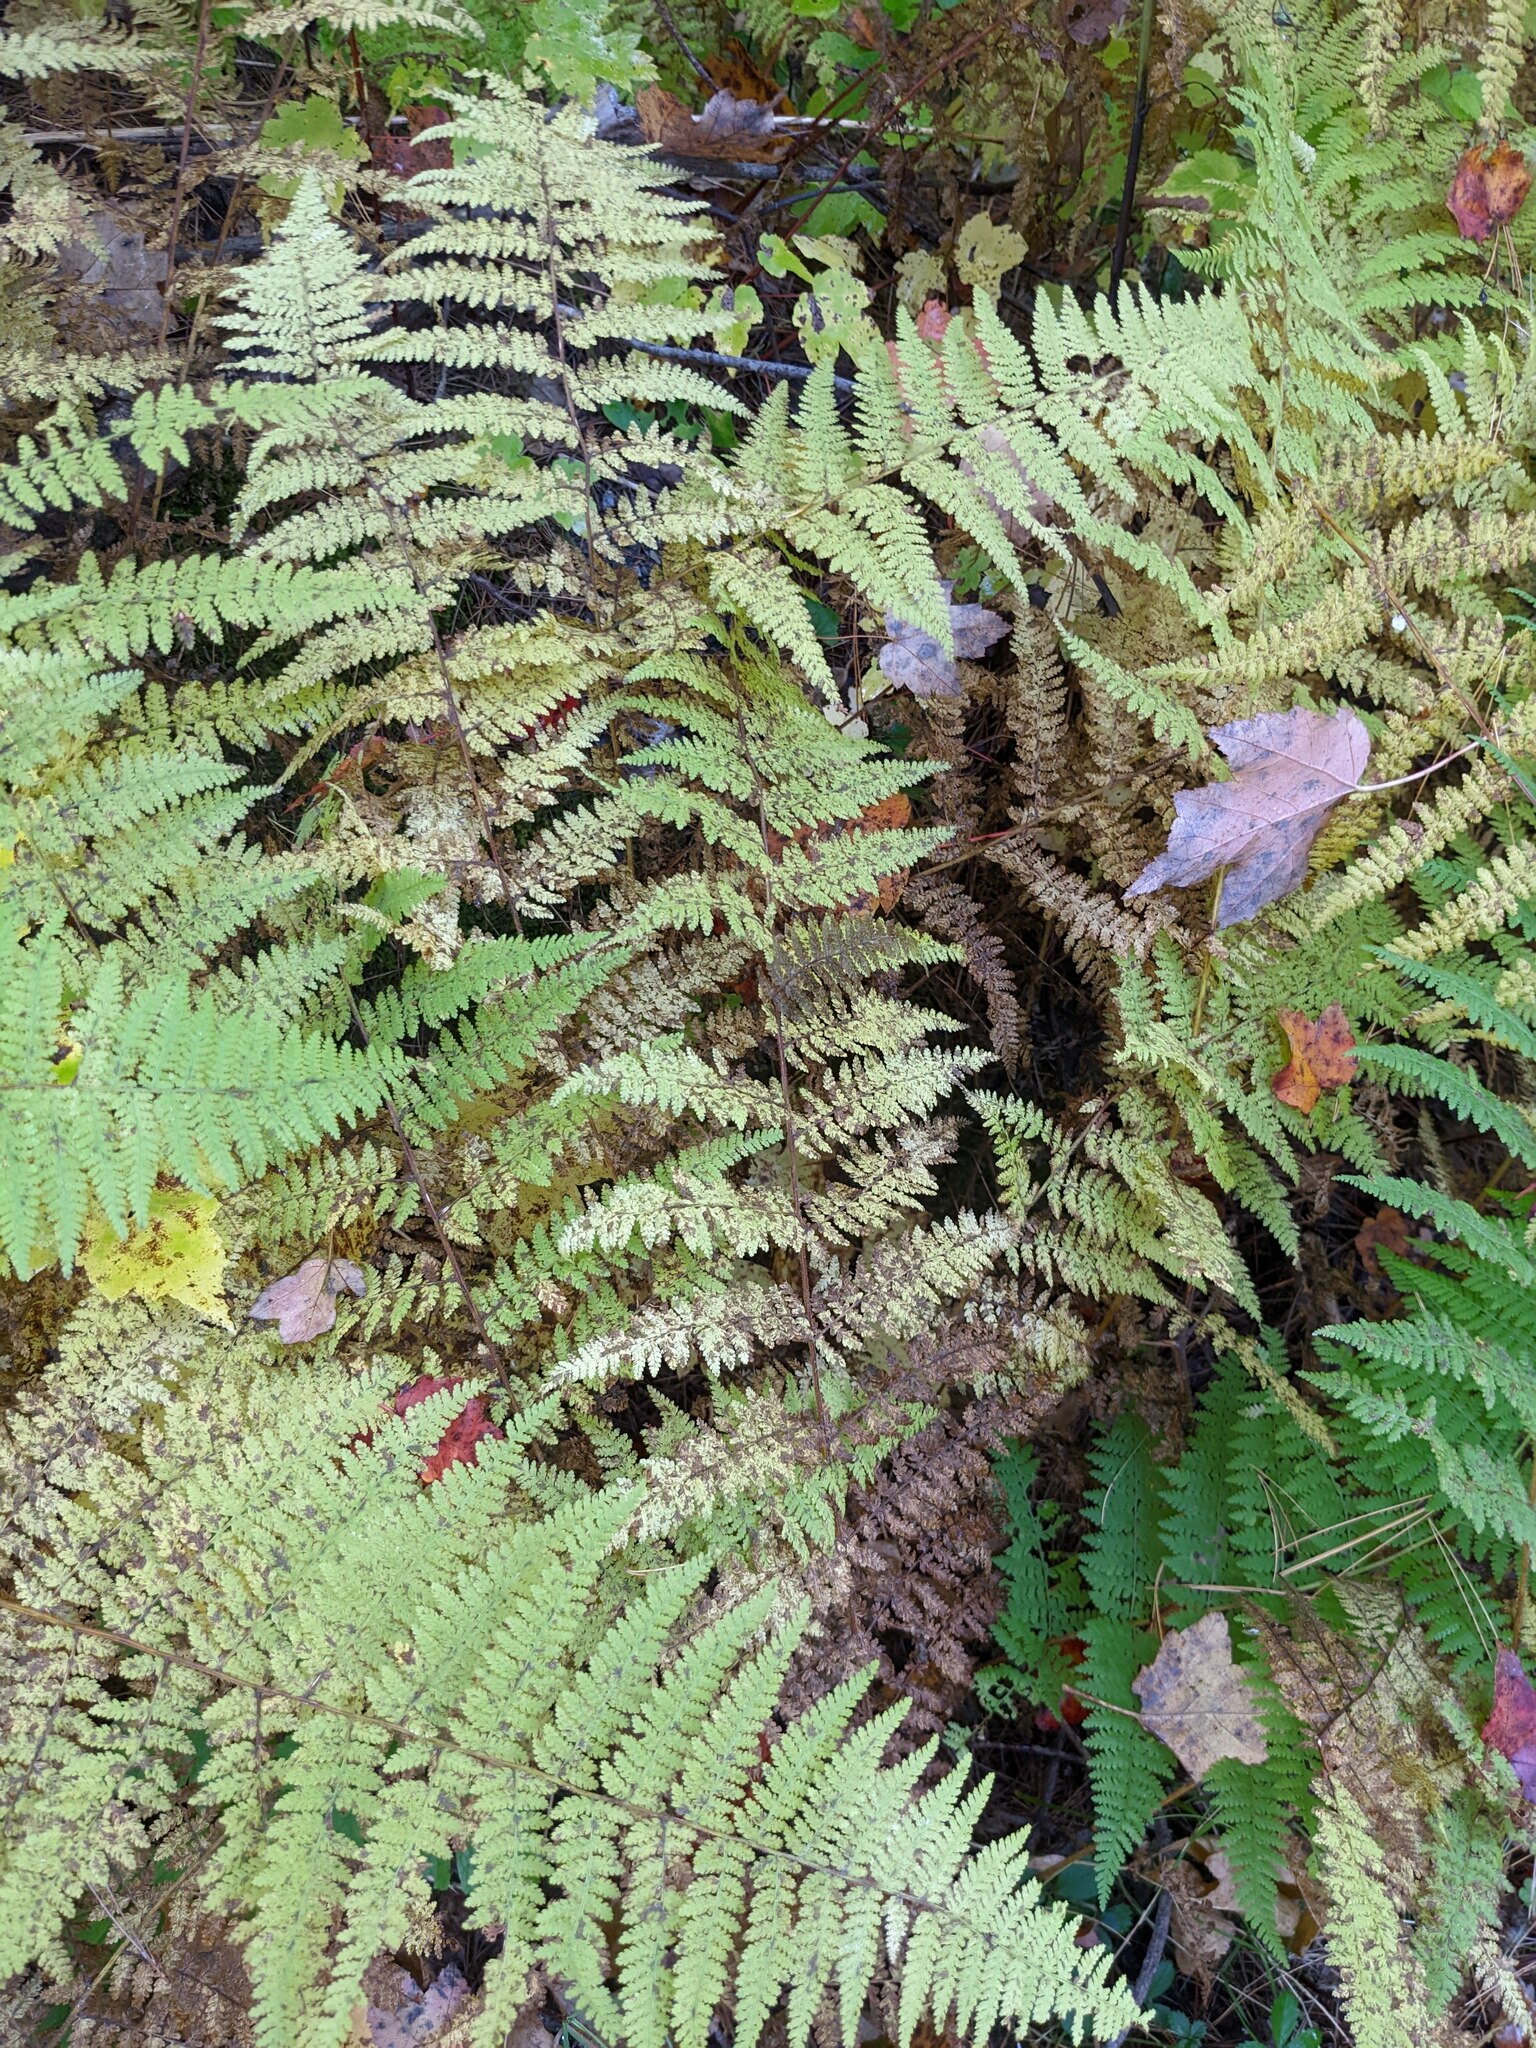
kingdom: Plantae
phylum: Tracheophyta
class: Polypodiopsida
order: Polypodiales
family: Dennstaedtiaceae
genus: Sitobolium
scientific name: Sitobolium punctilobum
